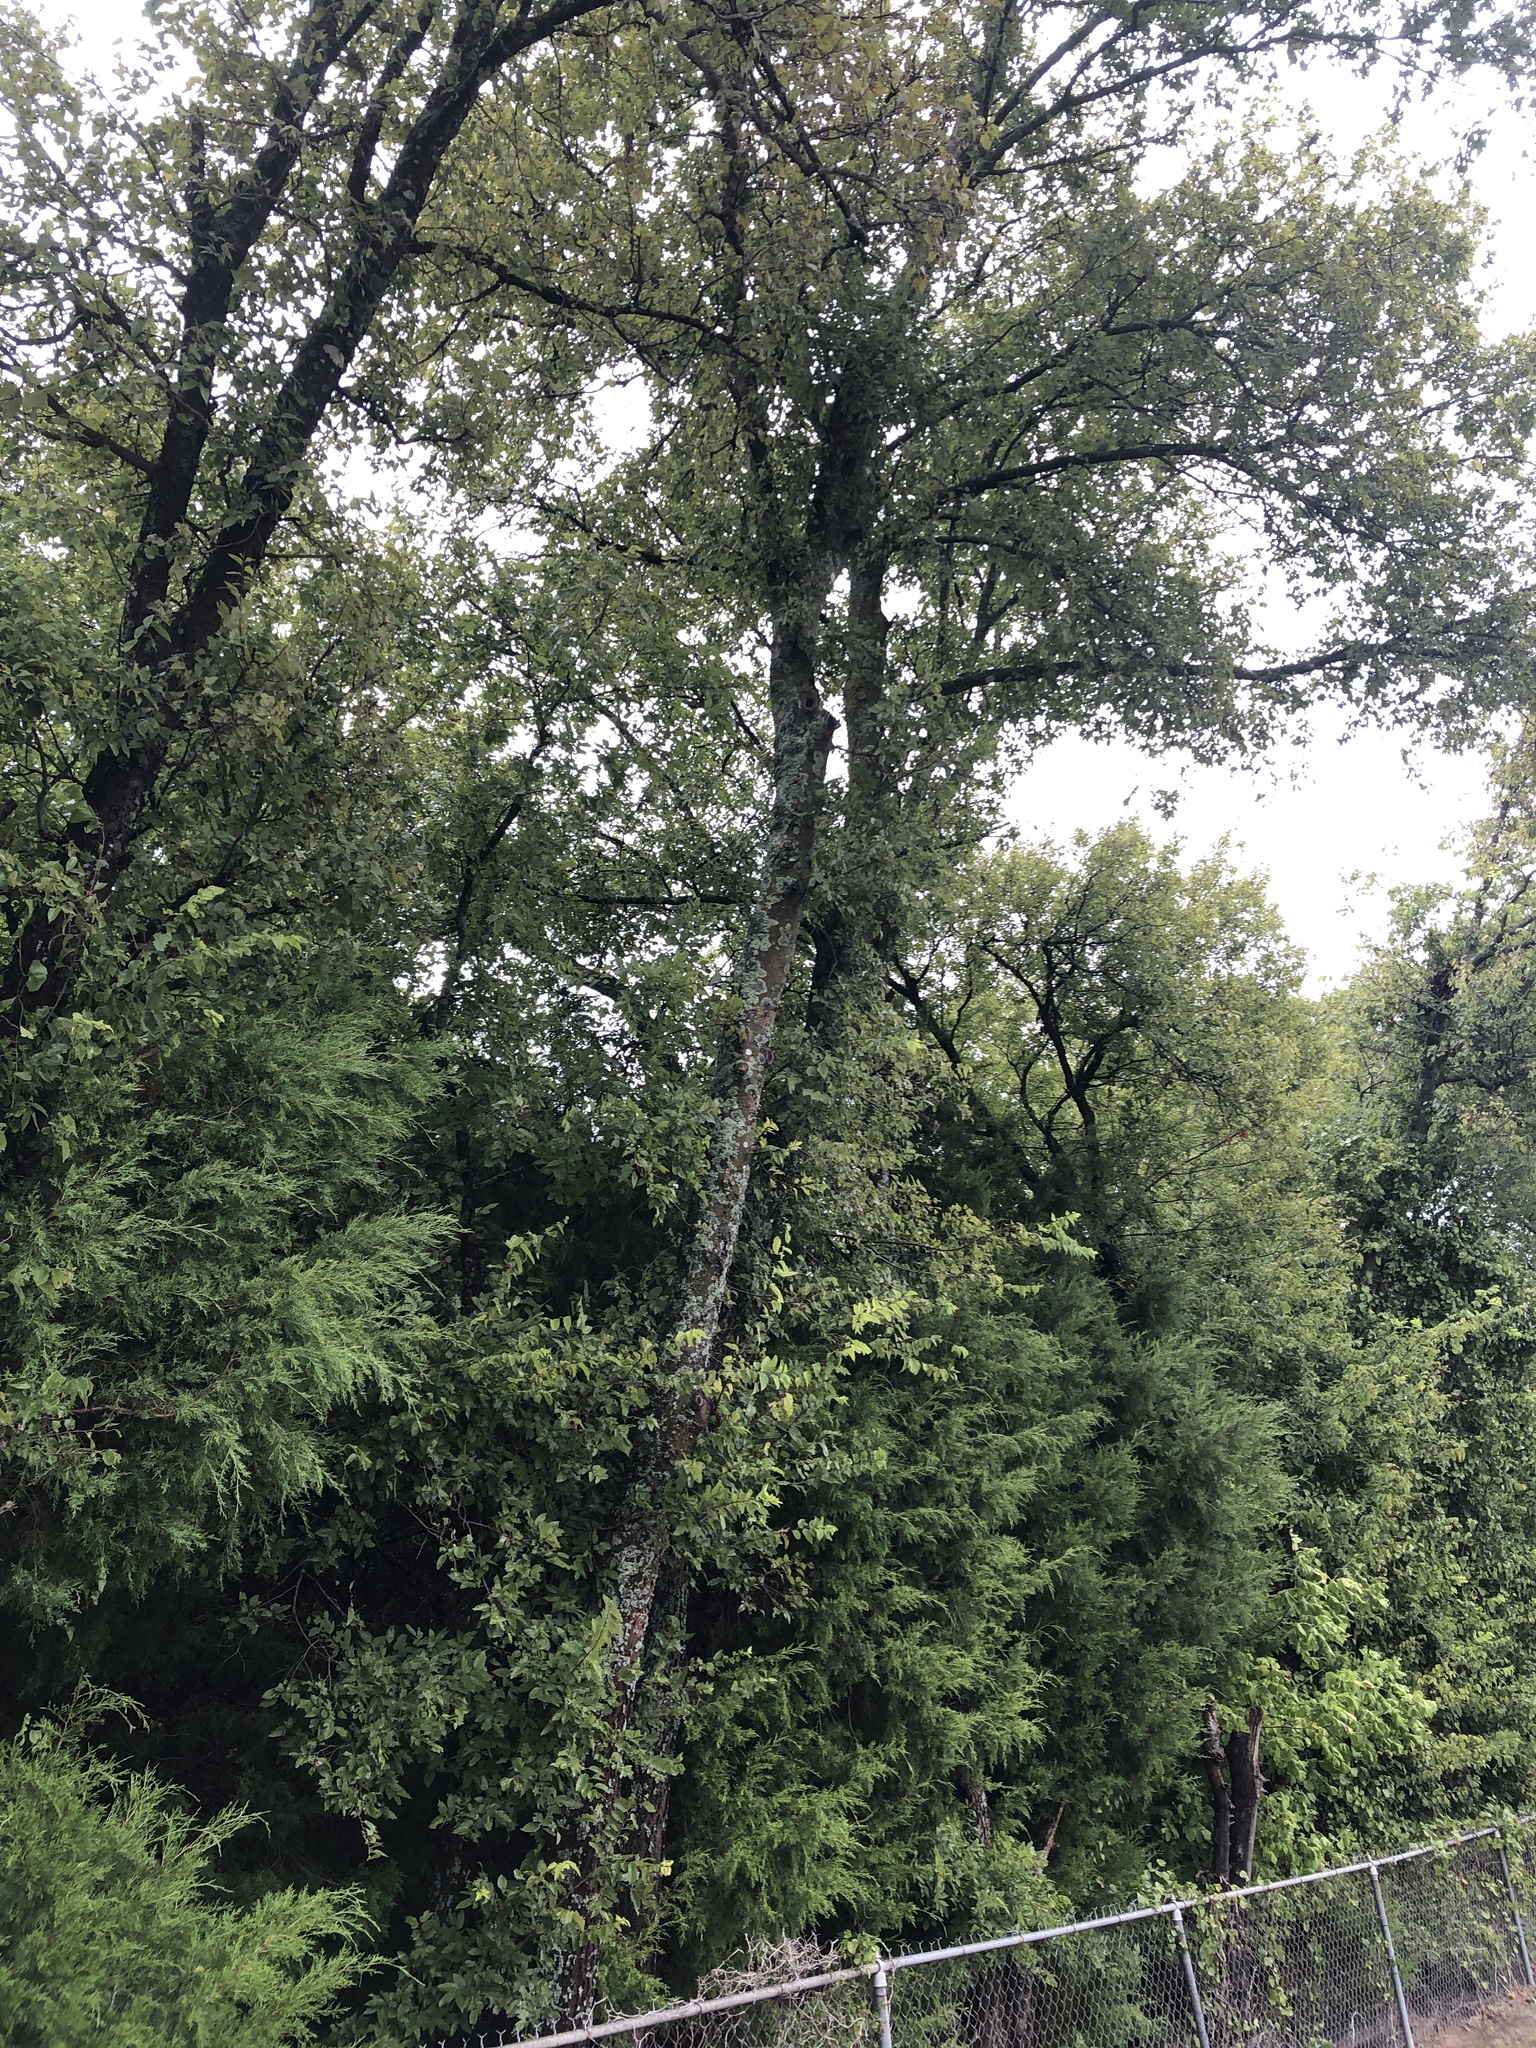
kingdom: Plantae
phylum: Tracheophyta
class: Magnoliopsida
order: Rosales
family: Cannabaceae
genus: Celtis
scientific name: Celtis laevigata
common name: Sugarberry
